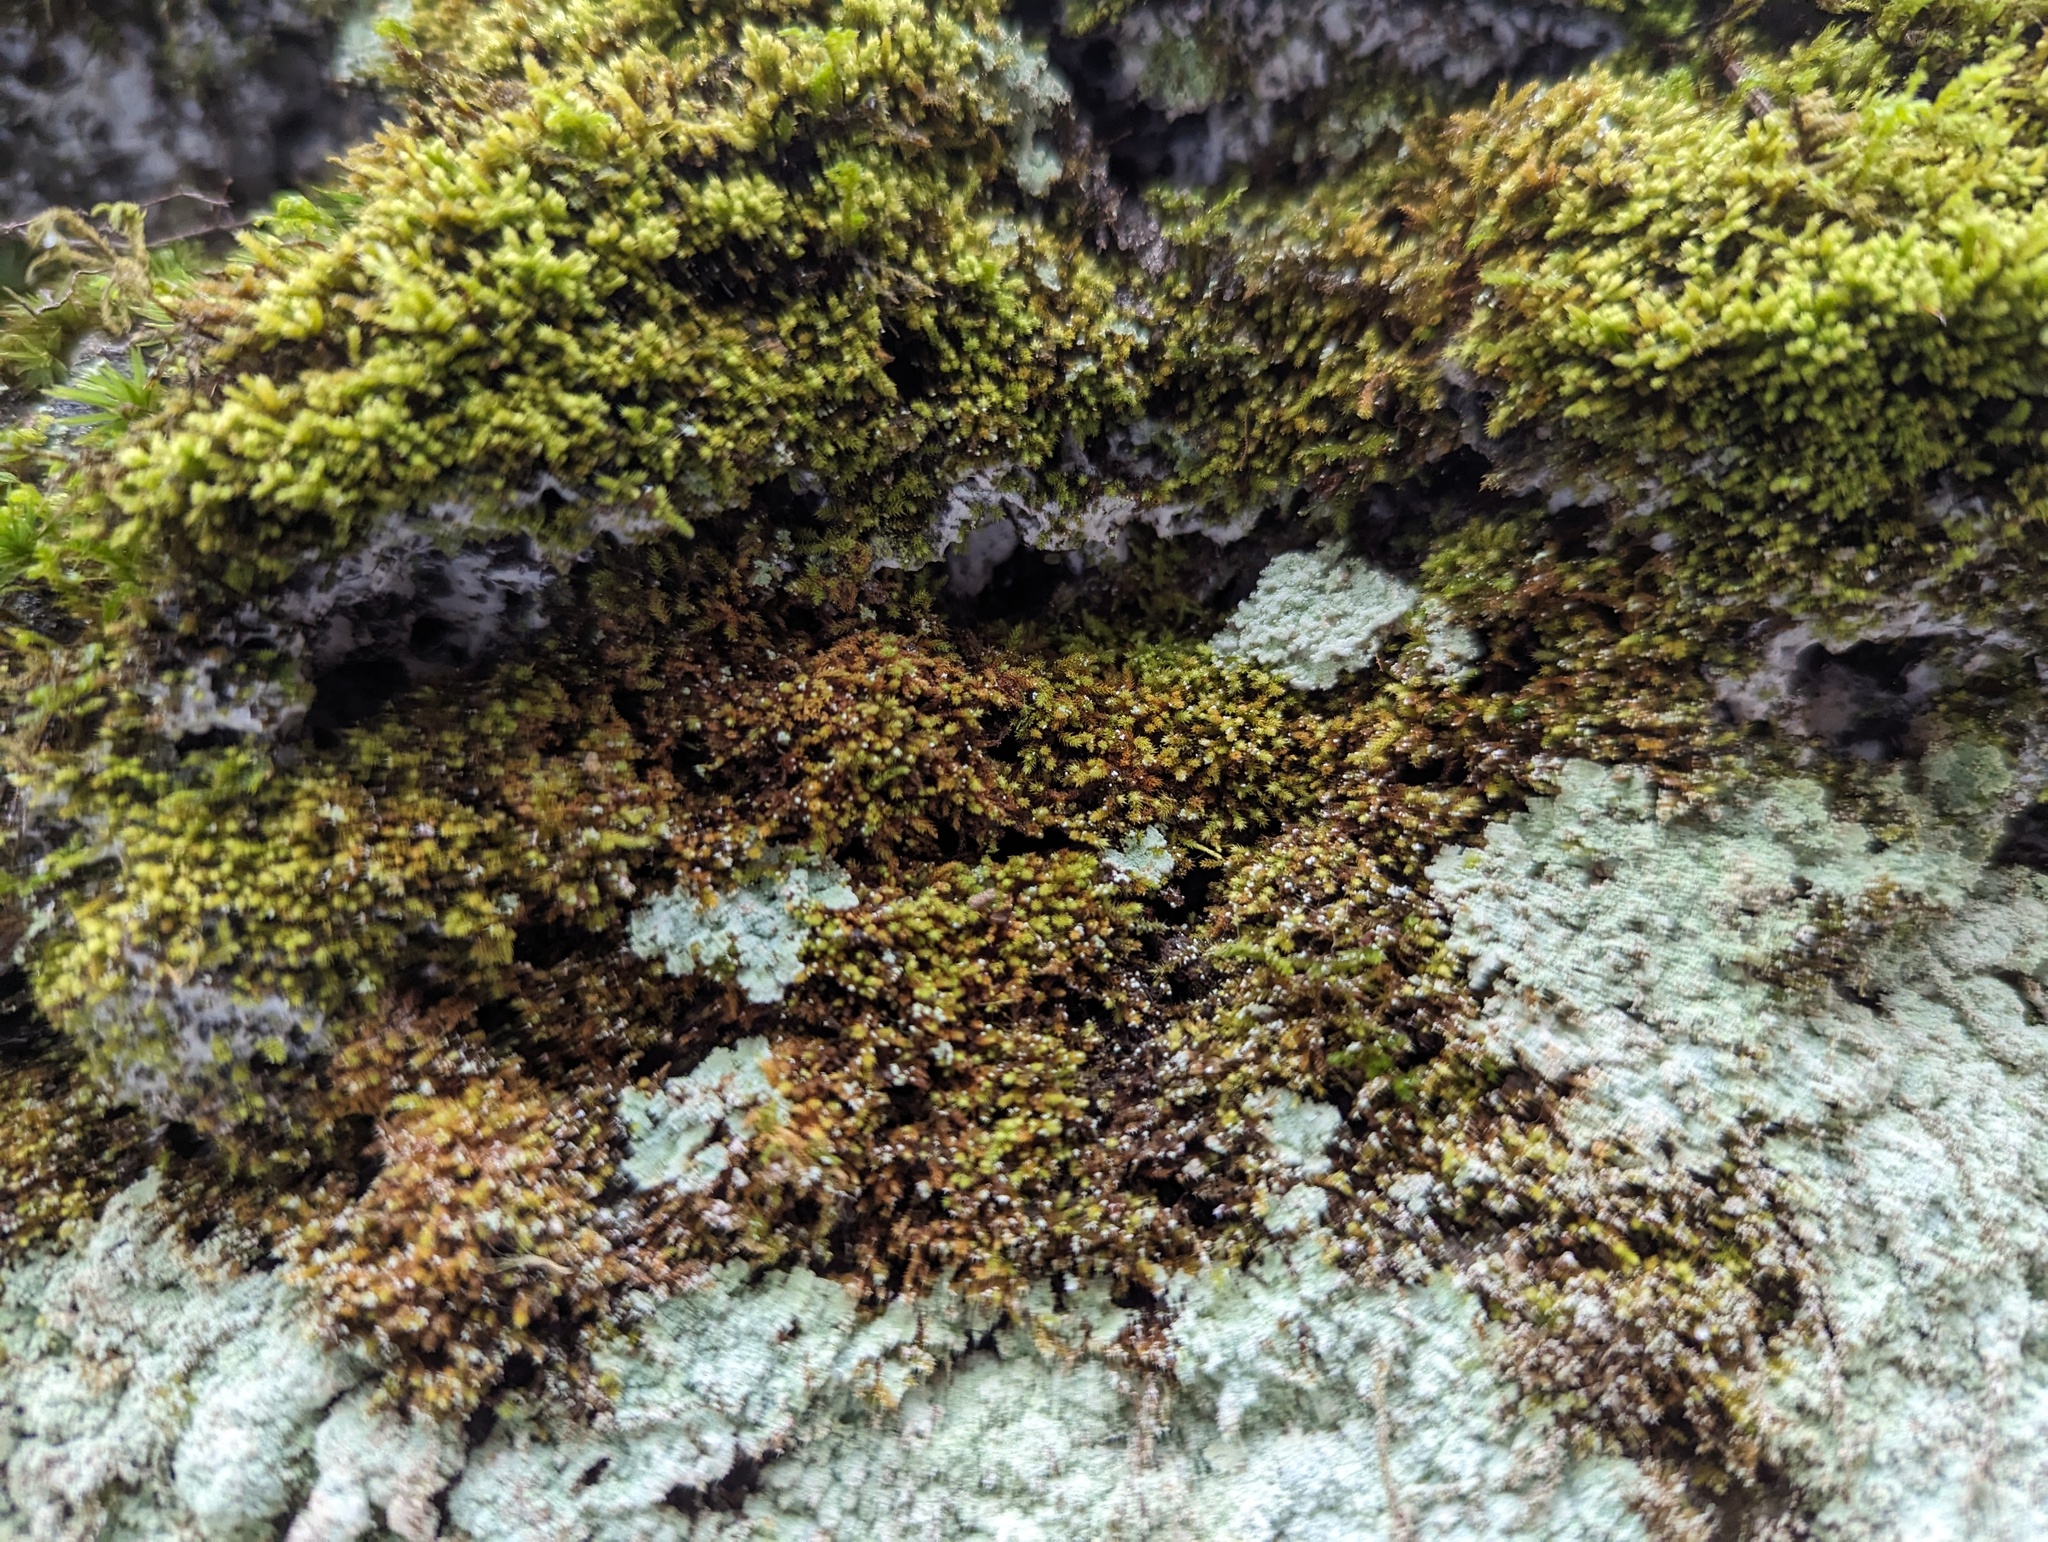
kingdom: Plantae
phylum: Bryophyta
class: Bryopsida
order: Hypnales
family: Brachytheciaceae
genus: Claopodium
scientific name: Claopodium rostratum
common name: Yellow yarn moss
